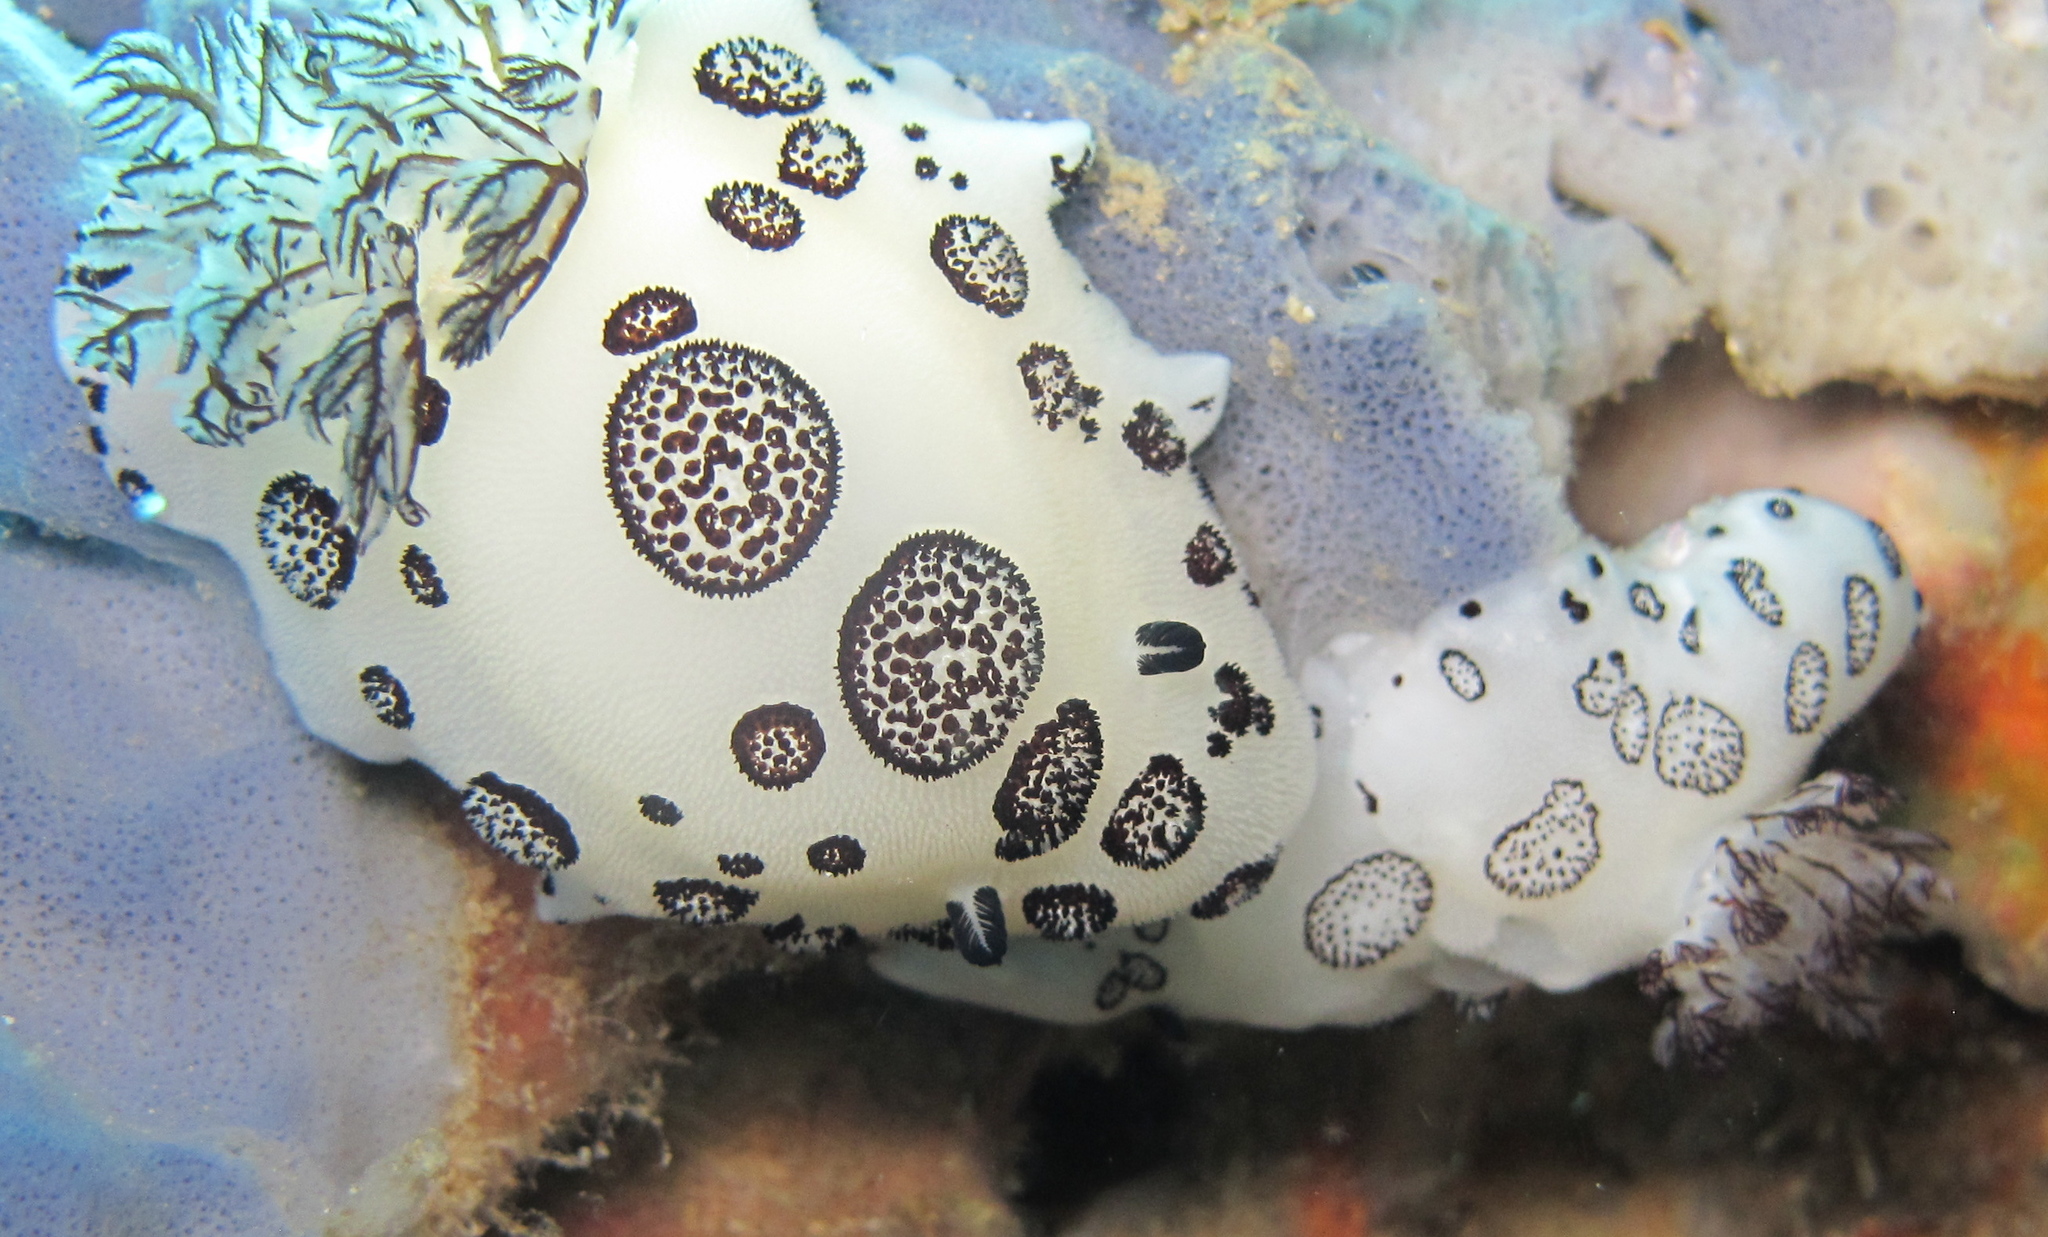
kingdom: Animalia
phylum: Mollusca
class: Gastropoda
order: Nudibranchia
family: Discodorididae
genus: Jorunna
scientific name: Jorunna funebris
